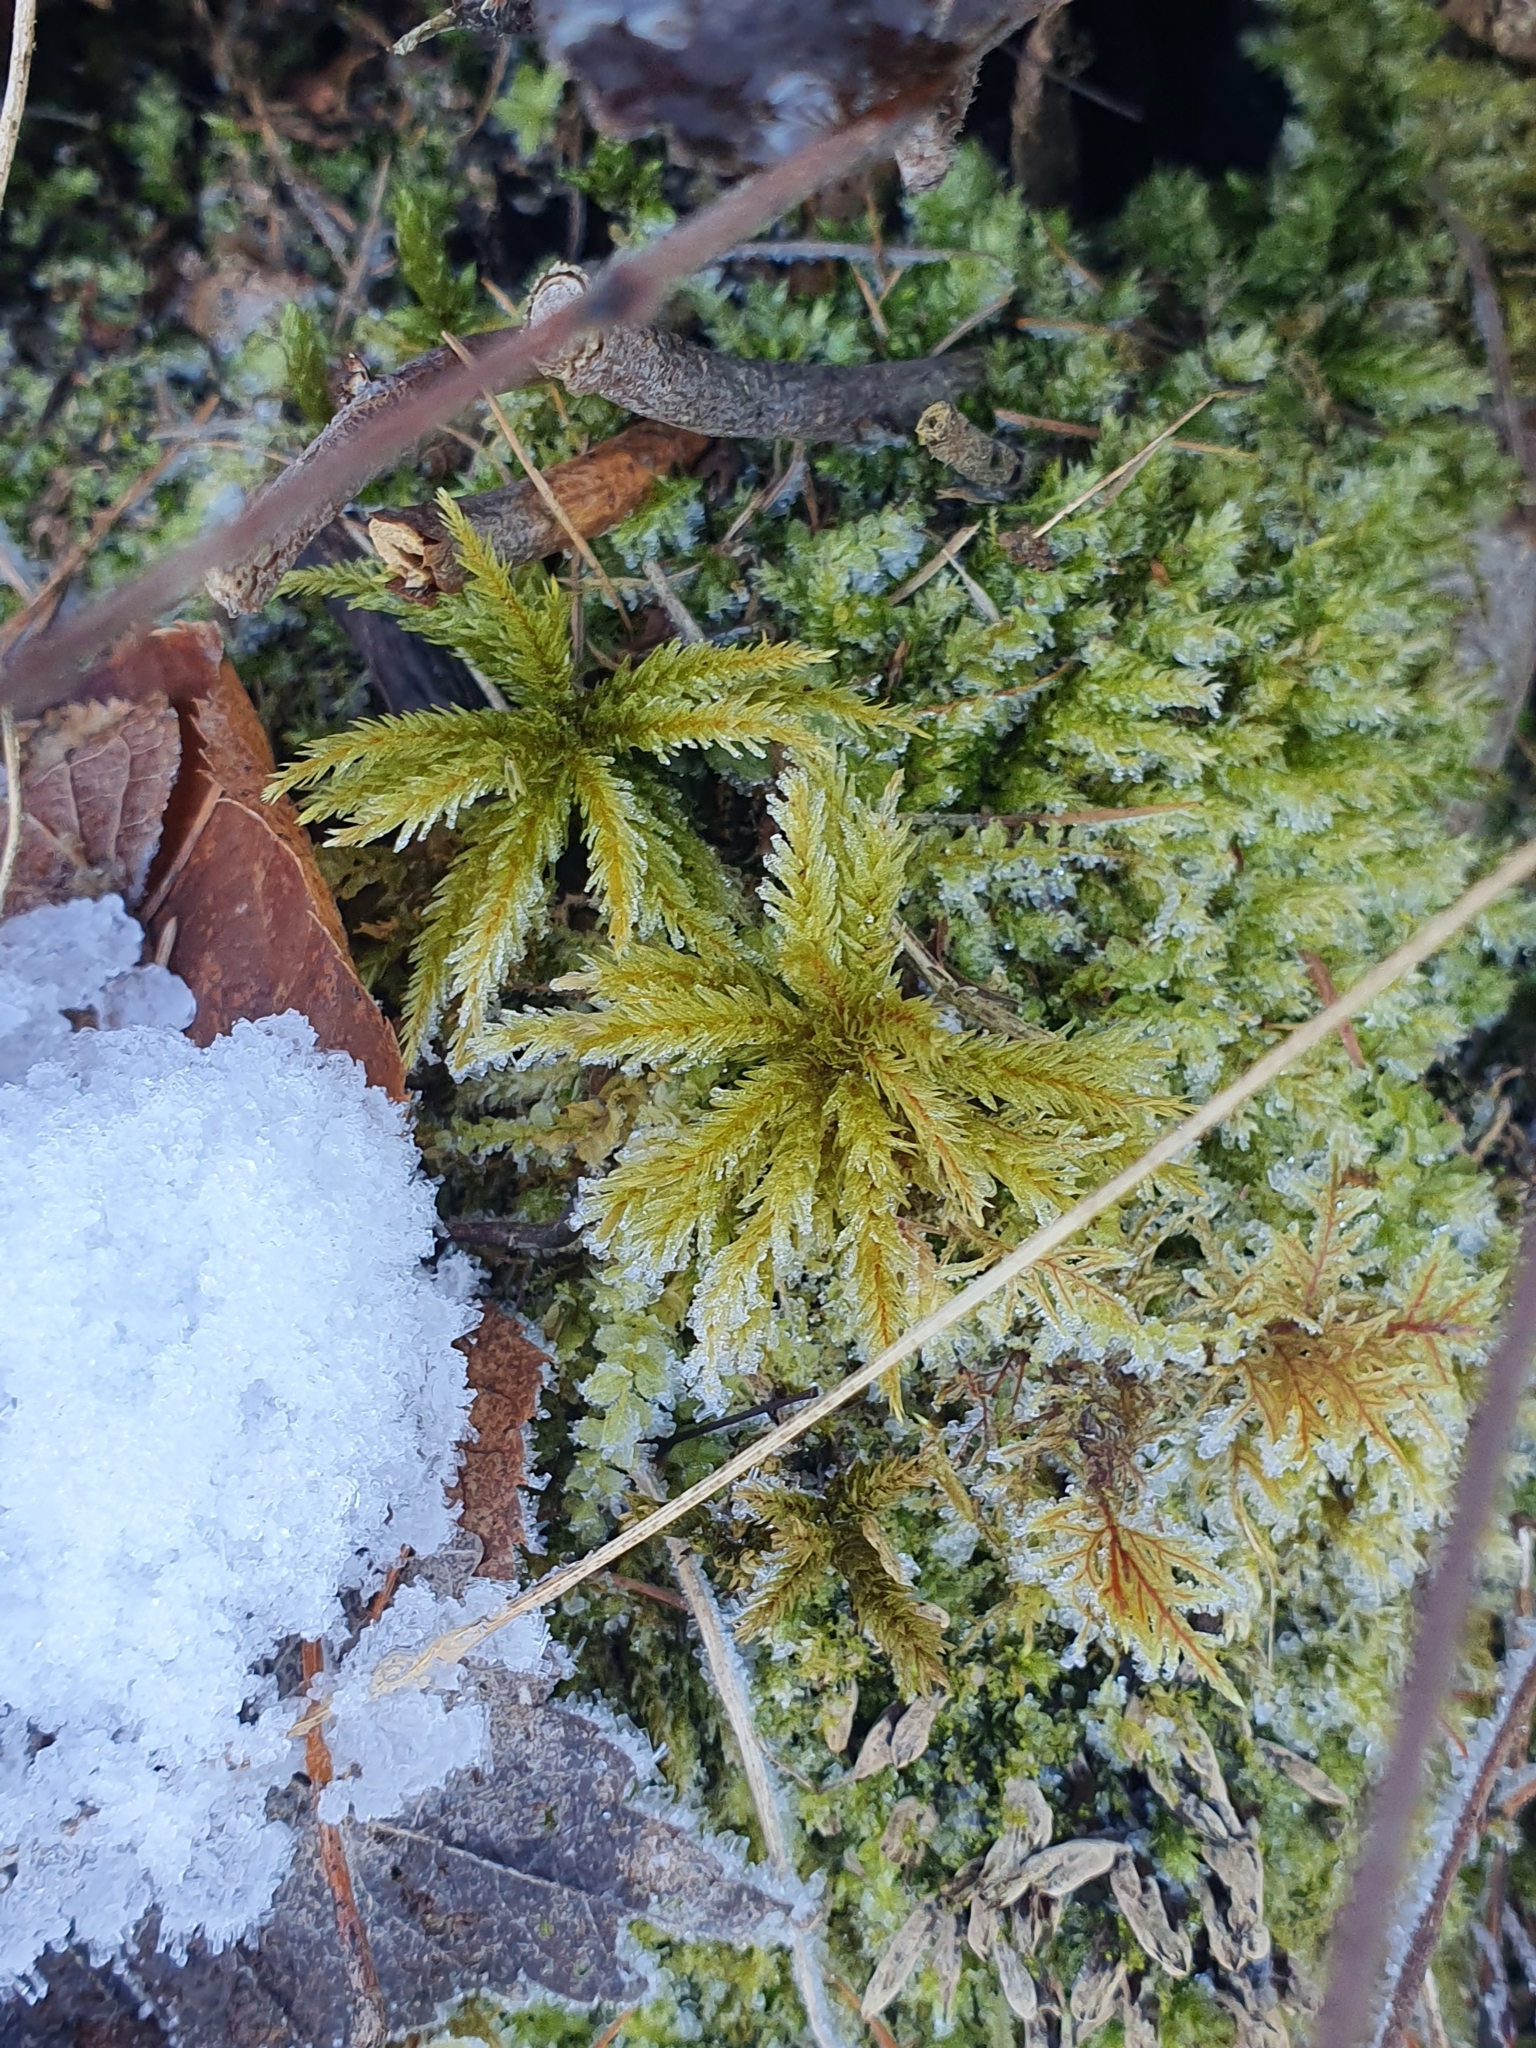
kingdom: Plantae
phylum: Bryophyta
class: Bryopsida
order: Hypnales
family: Climaciaceae
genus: Climacium
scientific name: Climacium dendroides
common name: Northern tree moss
